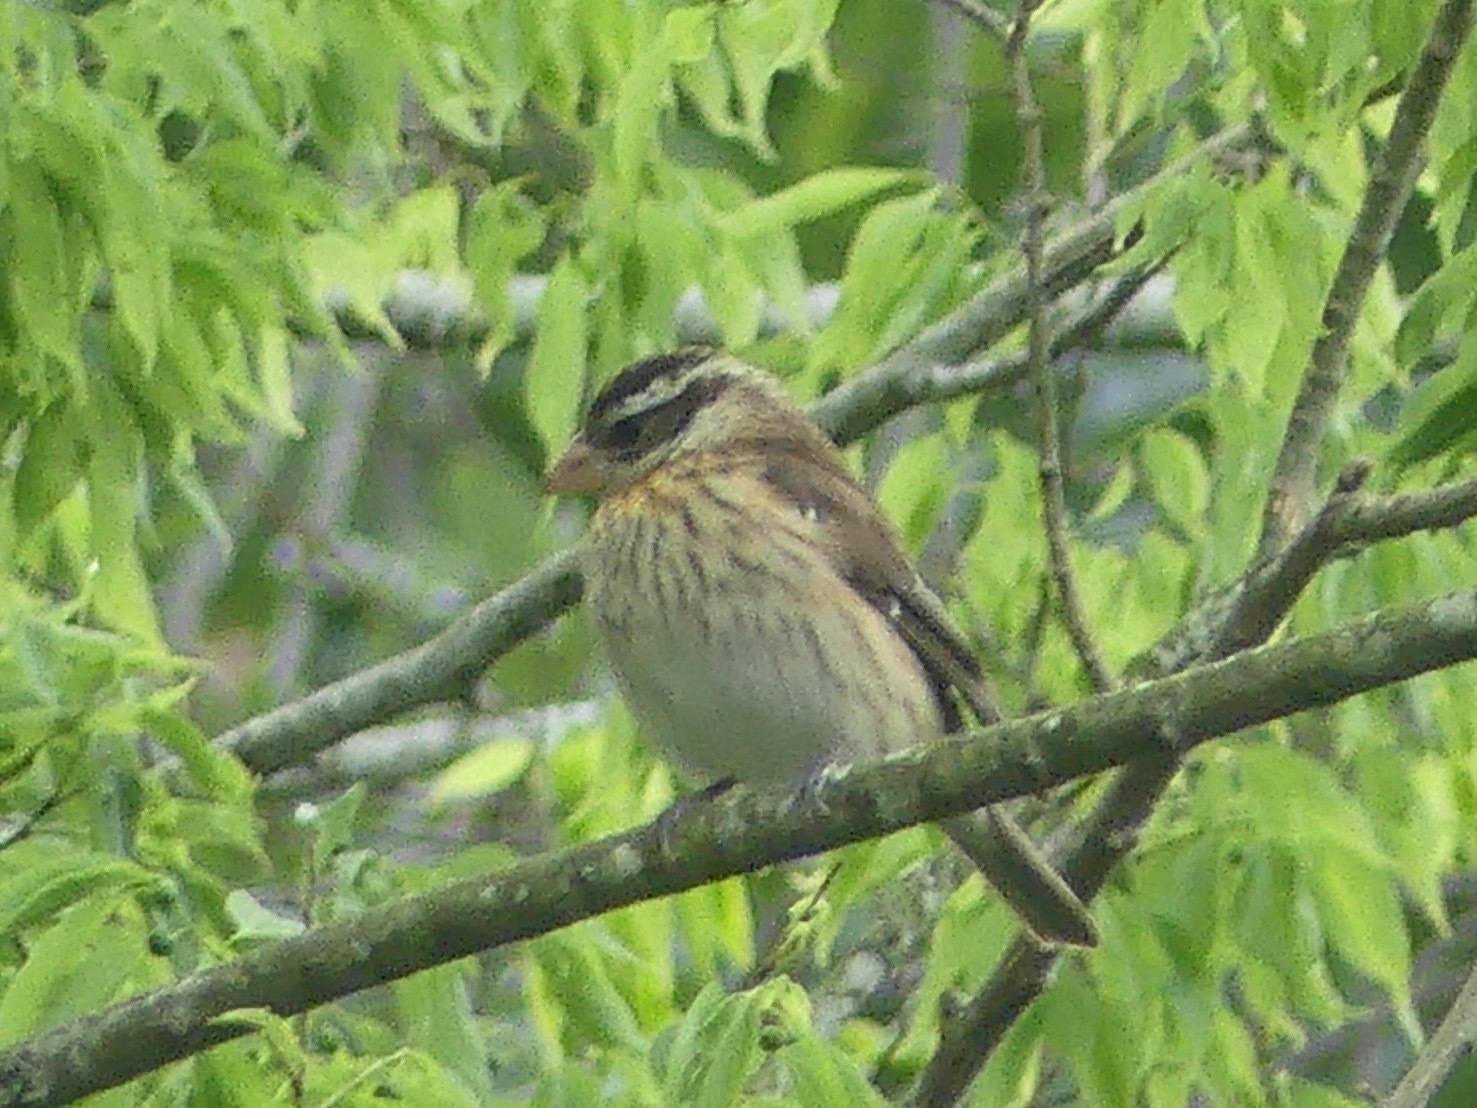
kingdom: Animalia
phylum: Chordata
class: Aves
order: Passeriformes
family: Cardinalidae
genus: Pheucticus
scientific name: Pheucticus ludovicianus
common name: Rose-breasted grosbeak
